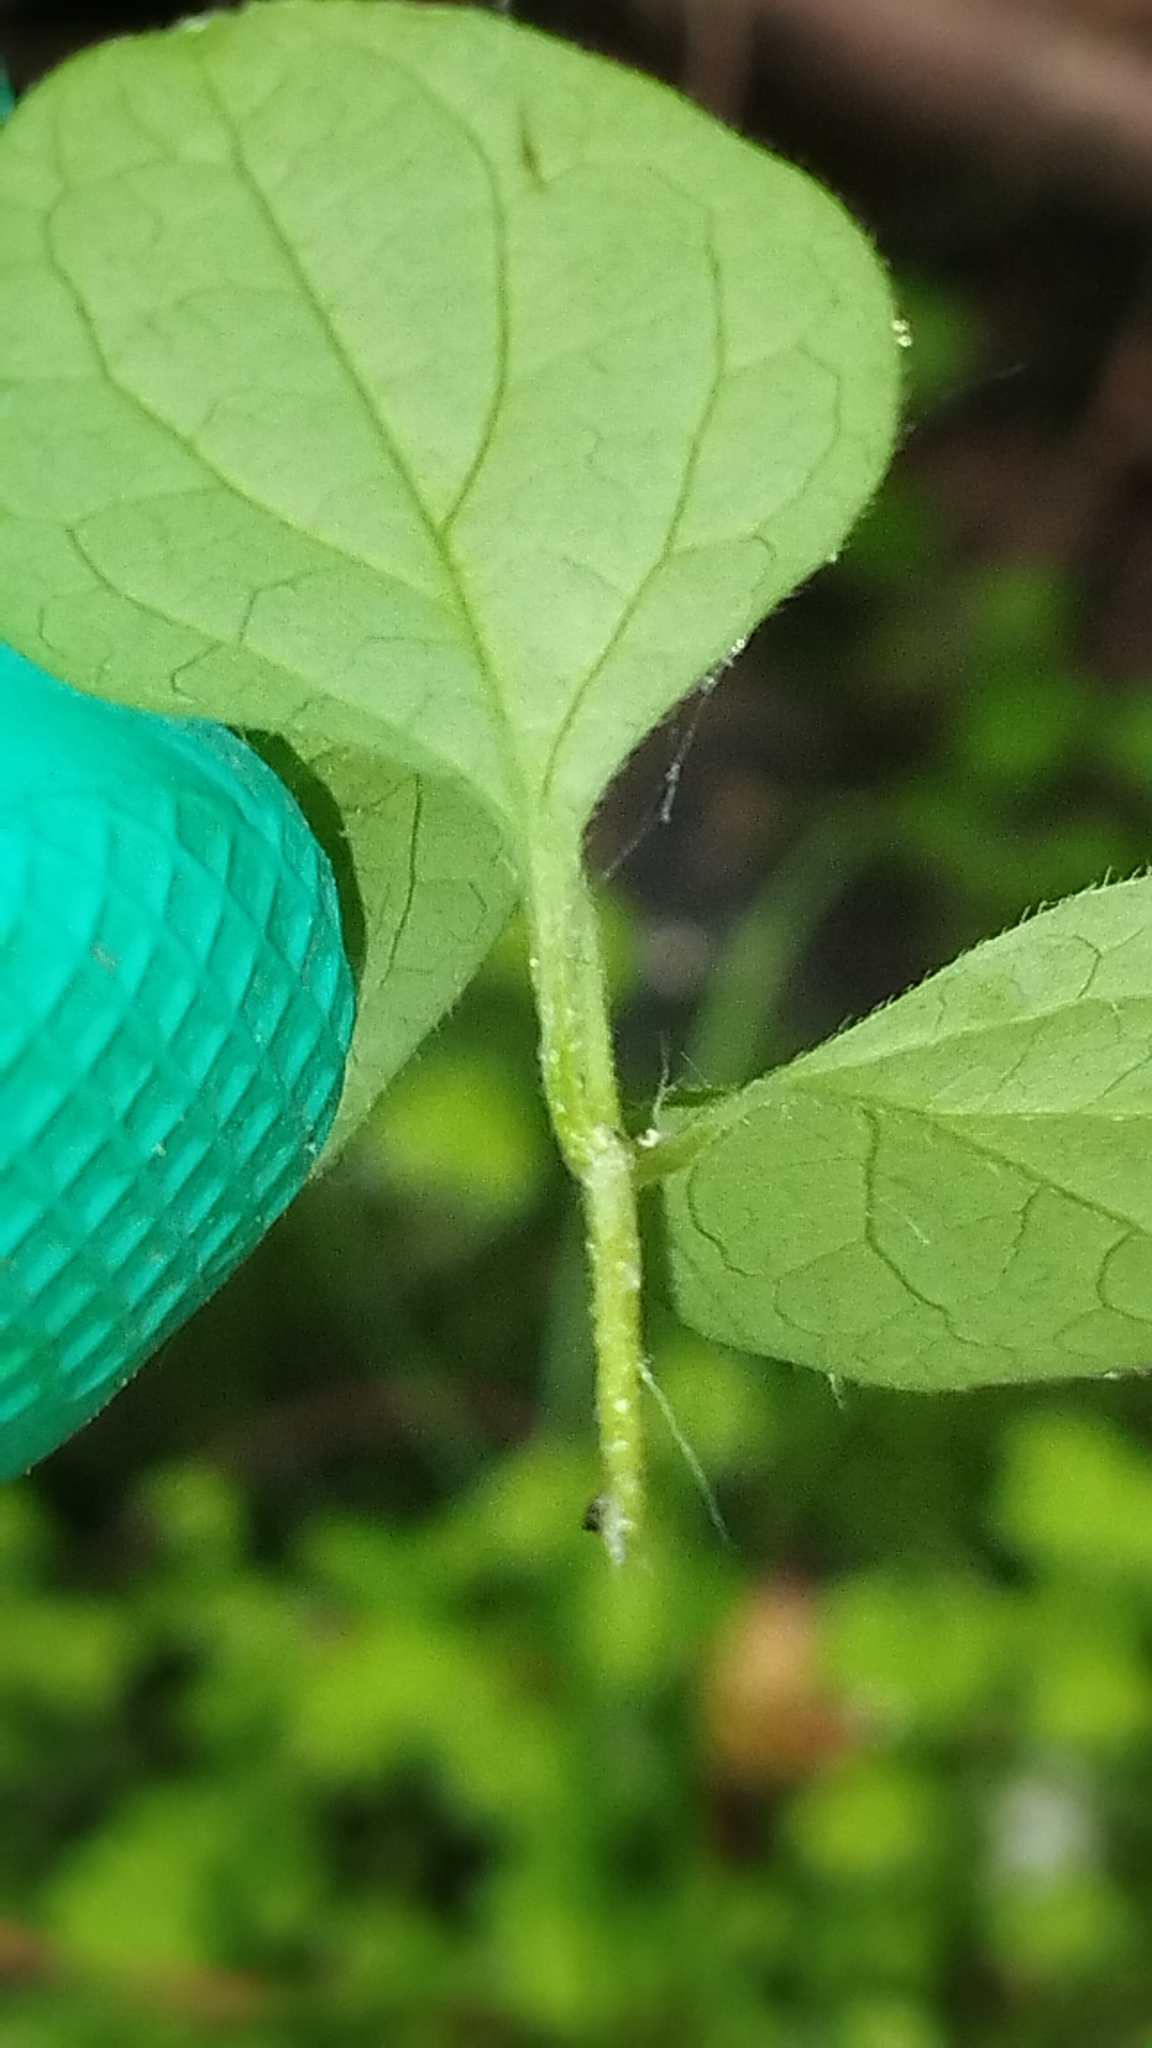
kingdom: Plantae
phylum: Tracheophyta
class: Magnoliopsida
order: Dipsacales
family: Caprifoliaceae
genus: Lonicera
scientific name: Lonicera japonica
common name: Japanese honeysuckle
